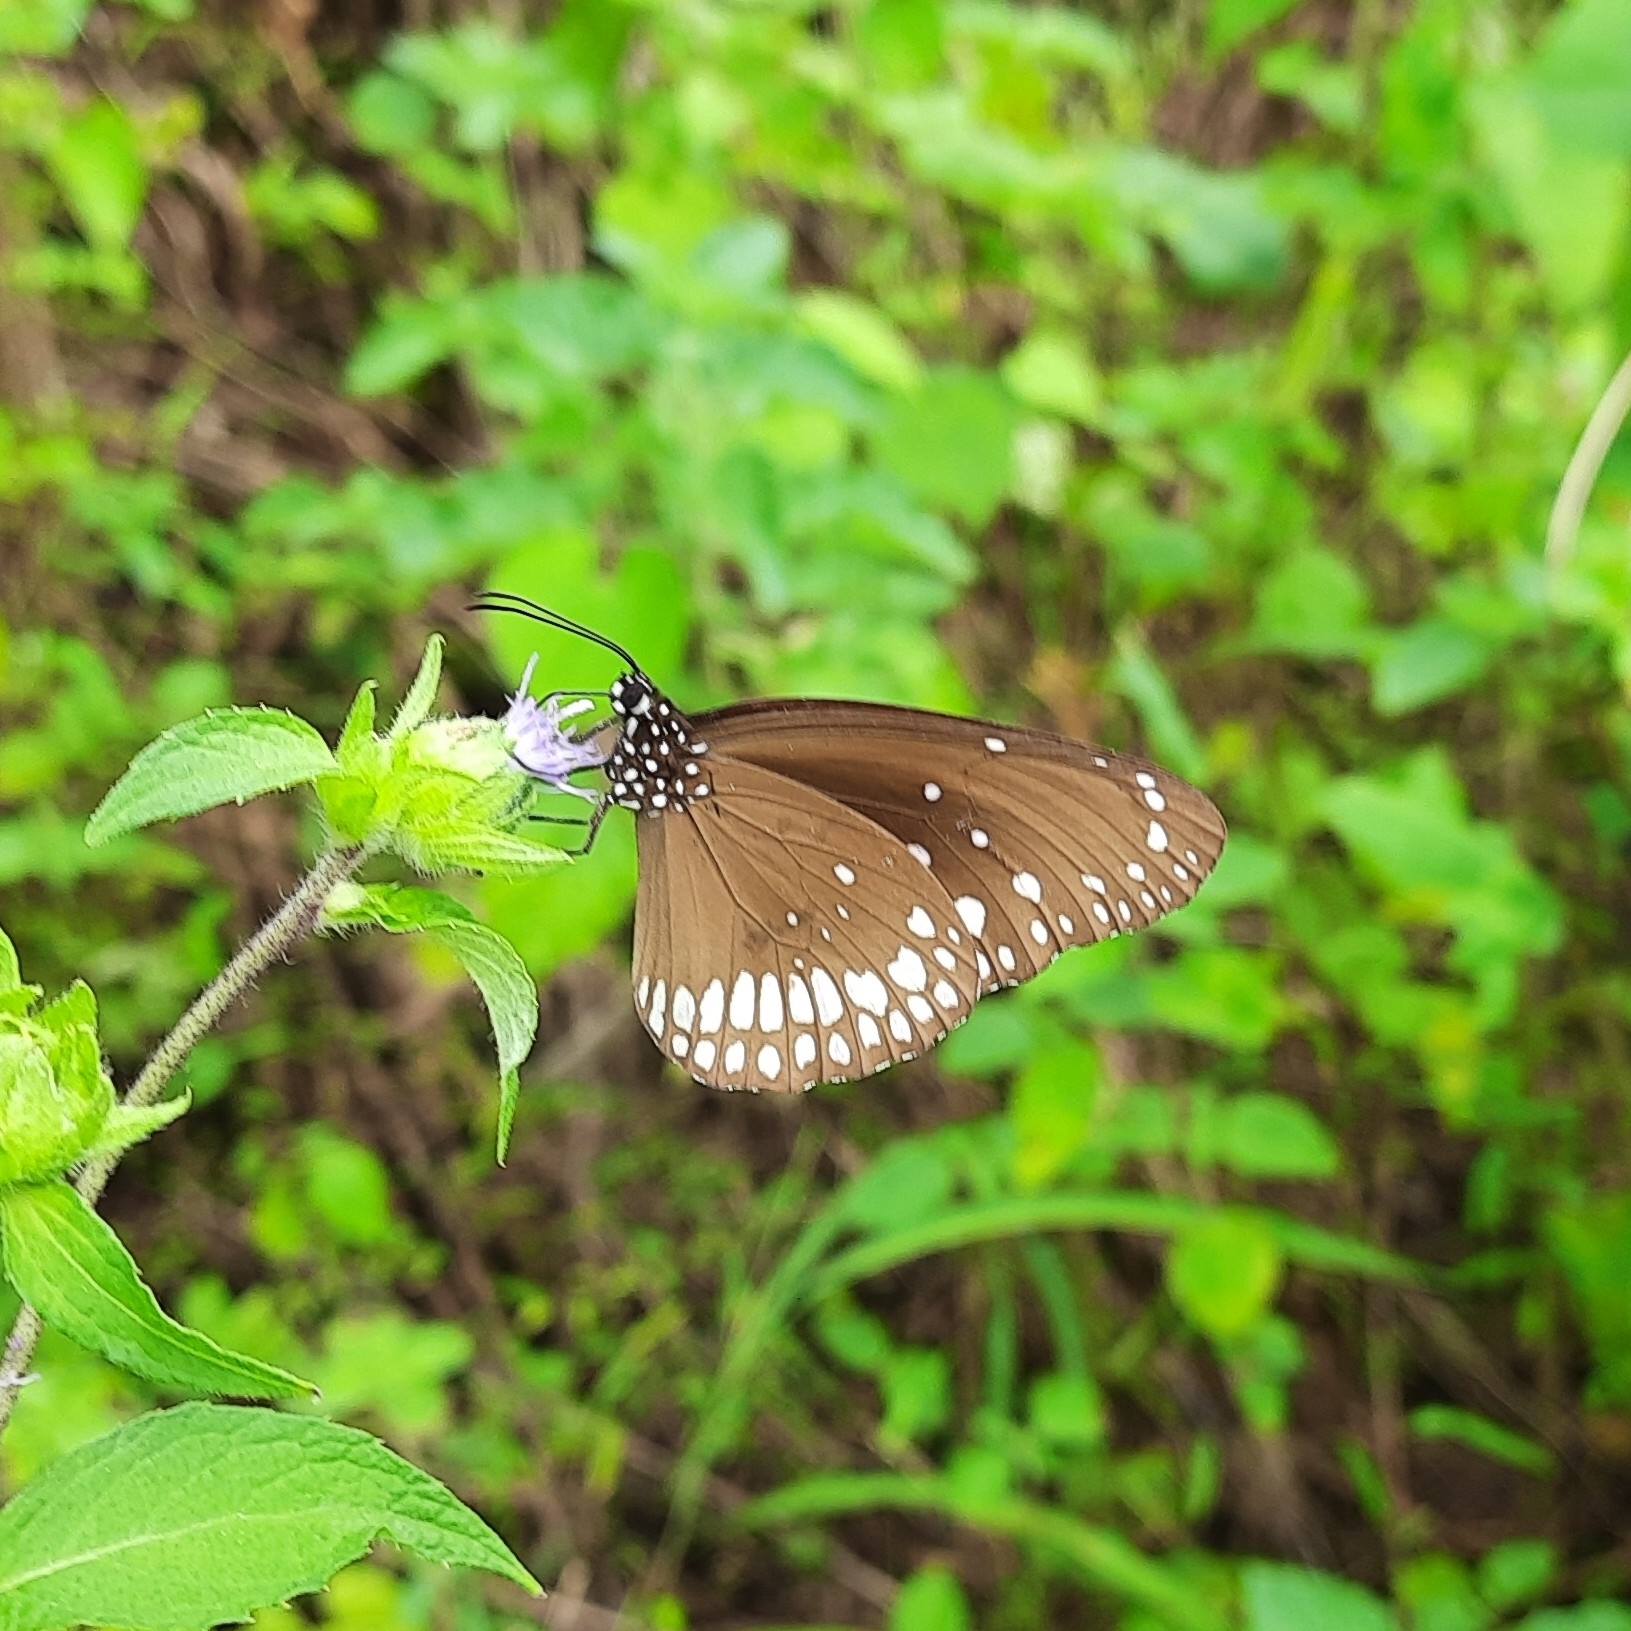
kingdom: Animalia
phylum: Arthropoda
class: Insecta
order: Lepidoptera
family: Nymphalidae
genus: Euploea
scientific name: Euploea core
